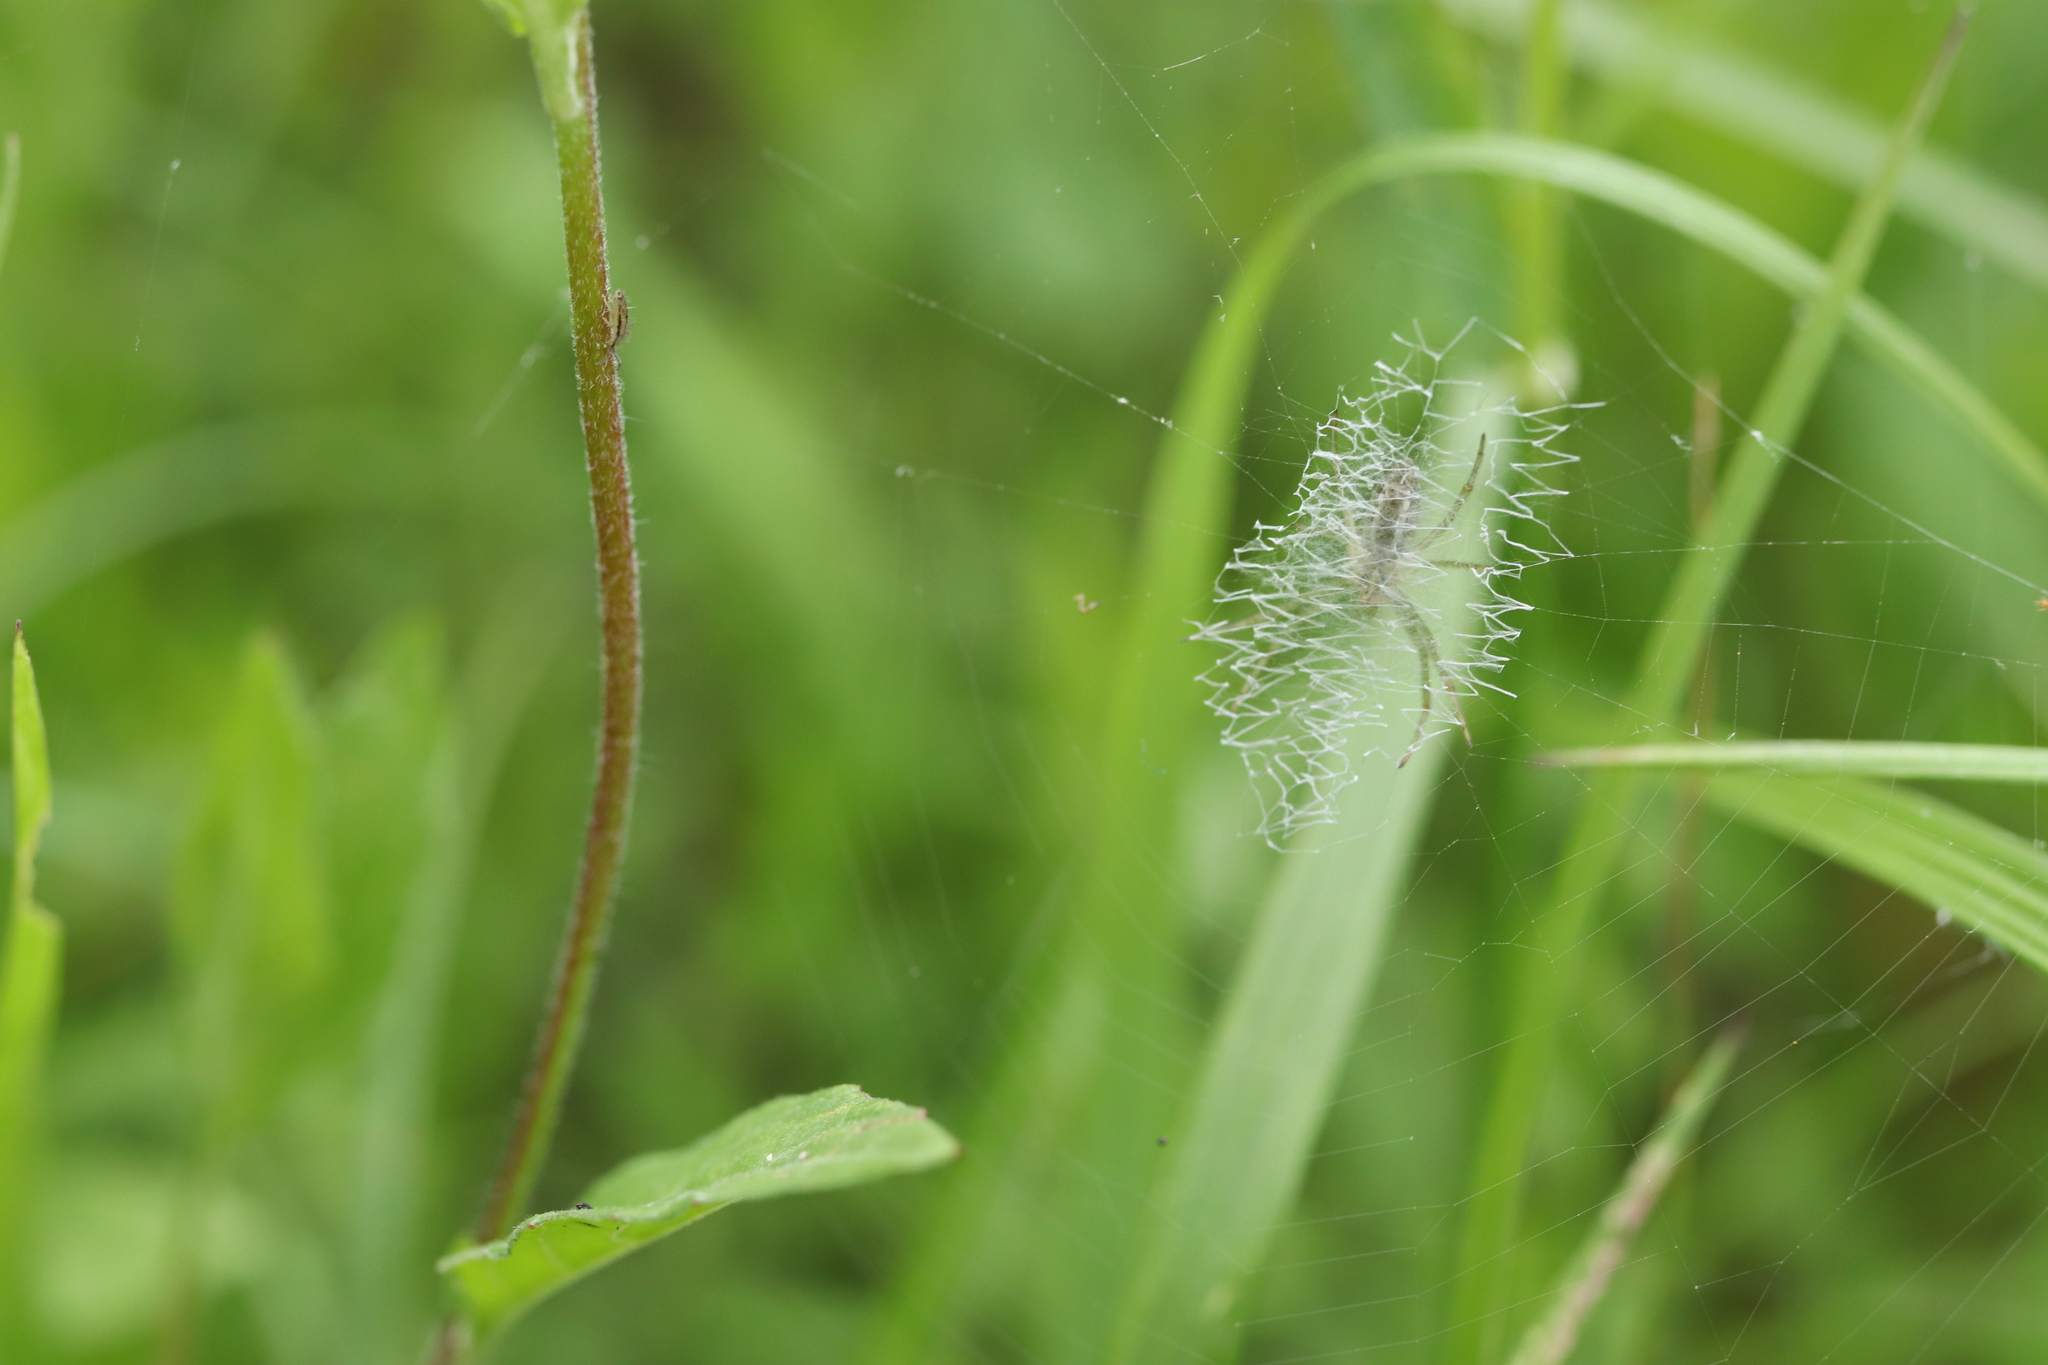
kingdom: Animalia
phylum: Arthropoda
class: Arachnida
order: Araneae
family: Araneidae
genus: Argiope
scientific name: Argiope bruennichi
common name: Wasp spider
